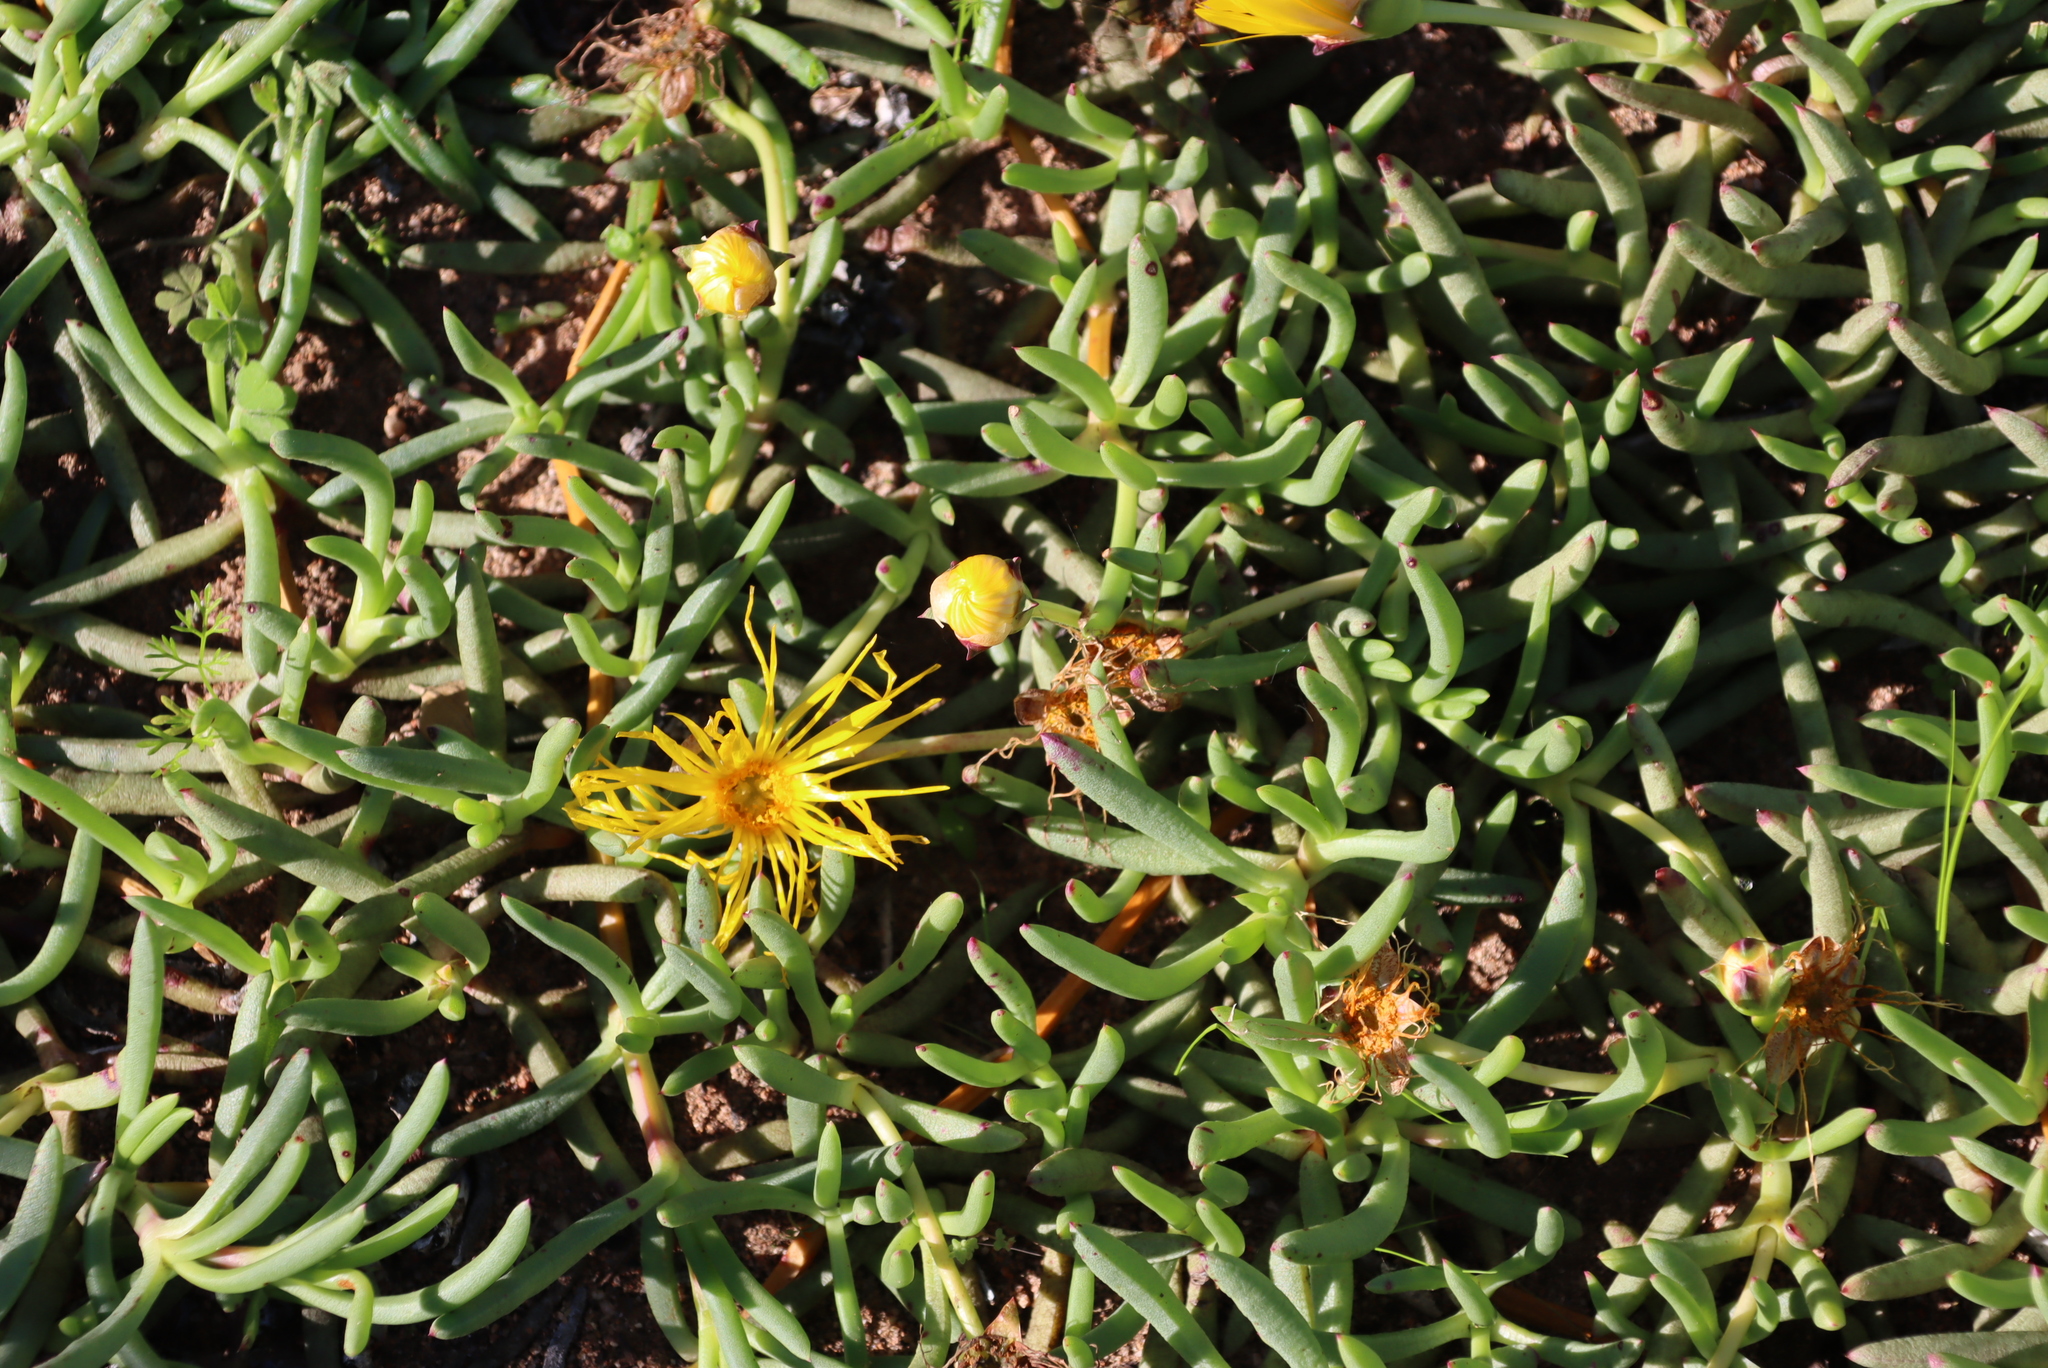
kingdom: Plantae
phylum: Tracheophyta
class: Magnoliopsida
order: Caryophyllales
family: Aizoaceae
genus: Jordaaniella
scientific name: Jordaaniella dubia
